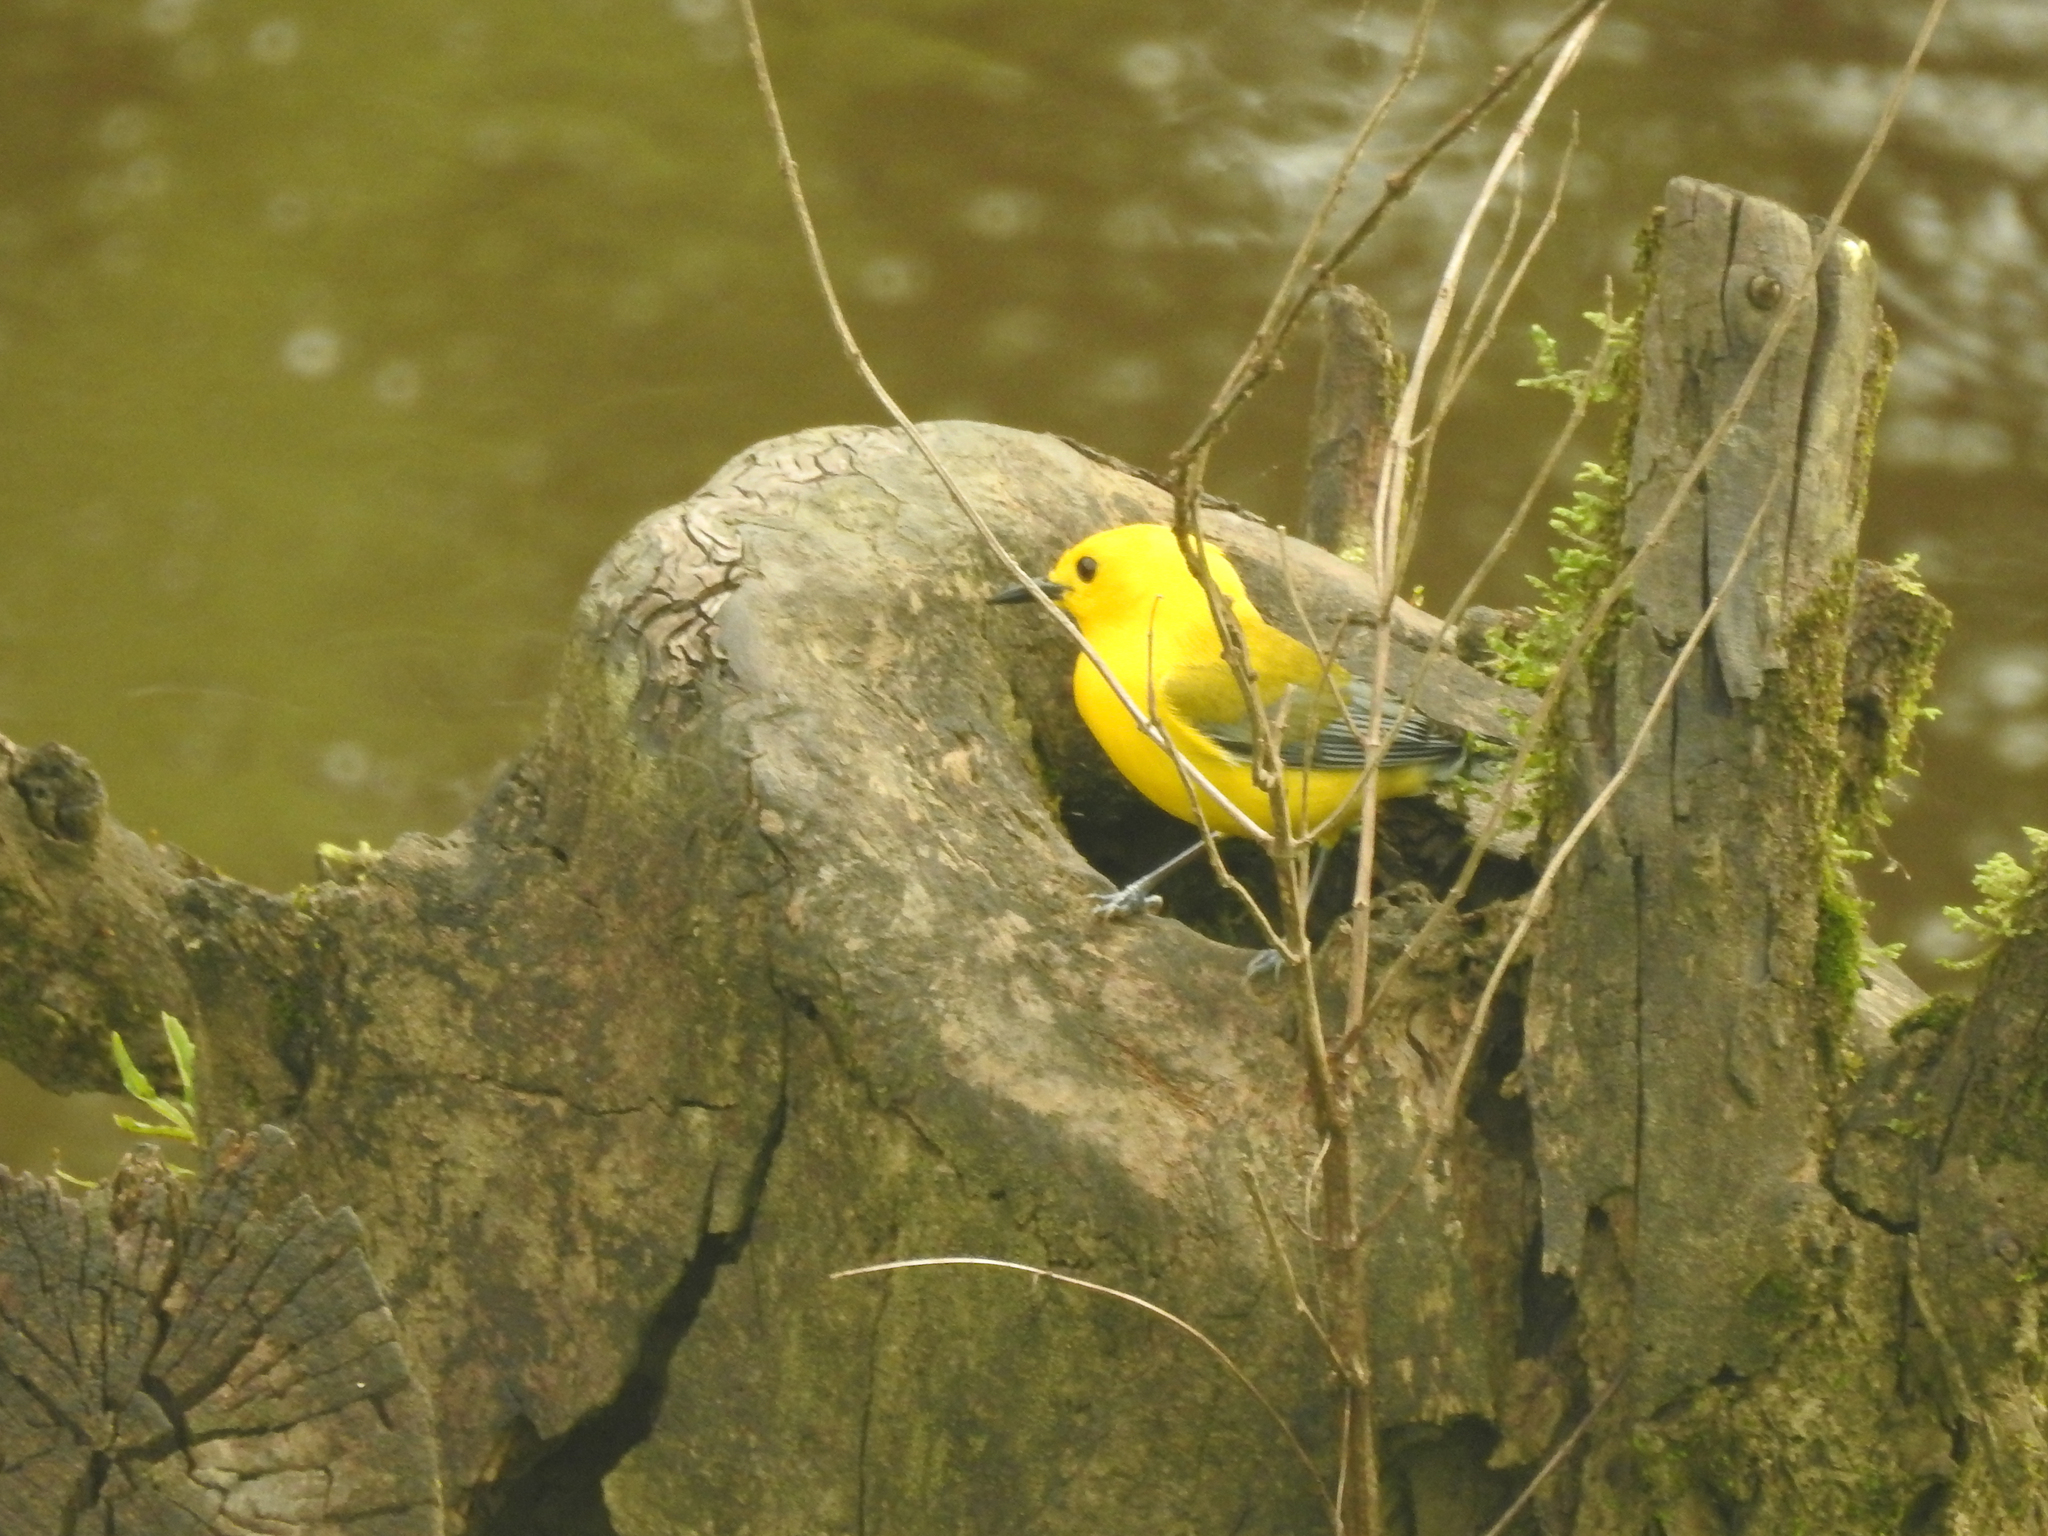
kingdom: Animalia
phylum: Chordata
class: Aves
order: Passeriformes
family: Parulidae
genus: Protonotaria
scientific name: Protonotaria citrea
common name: Prothonotary warbler
